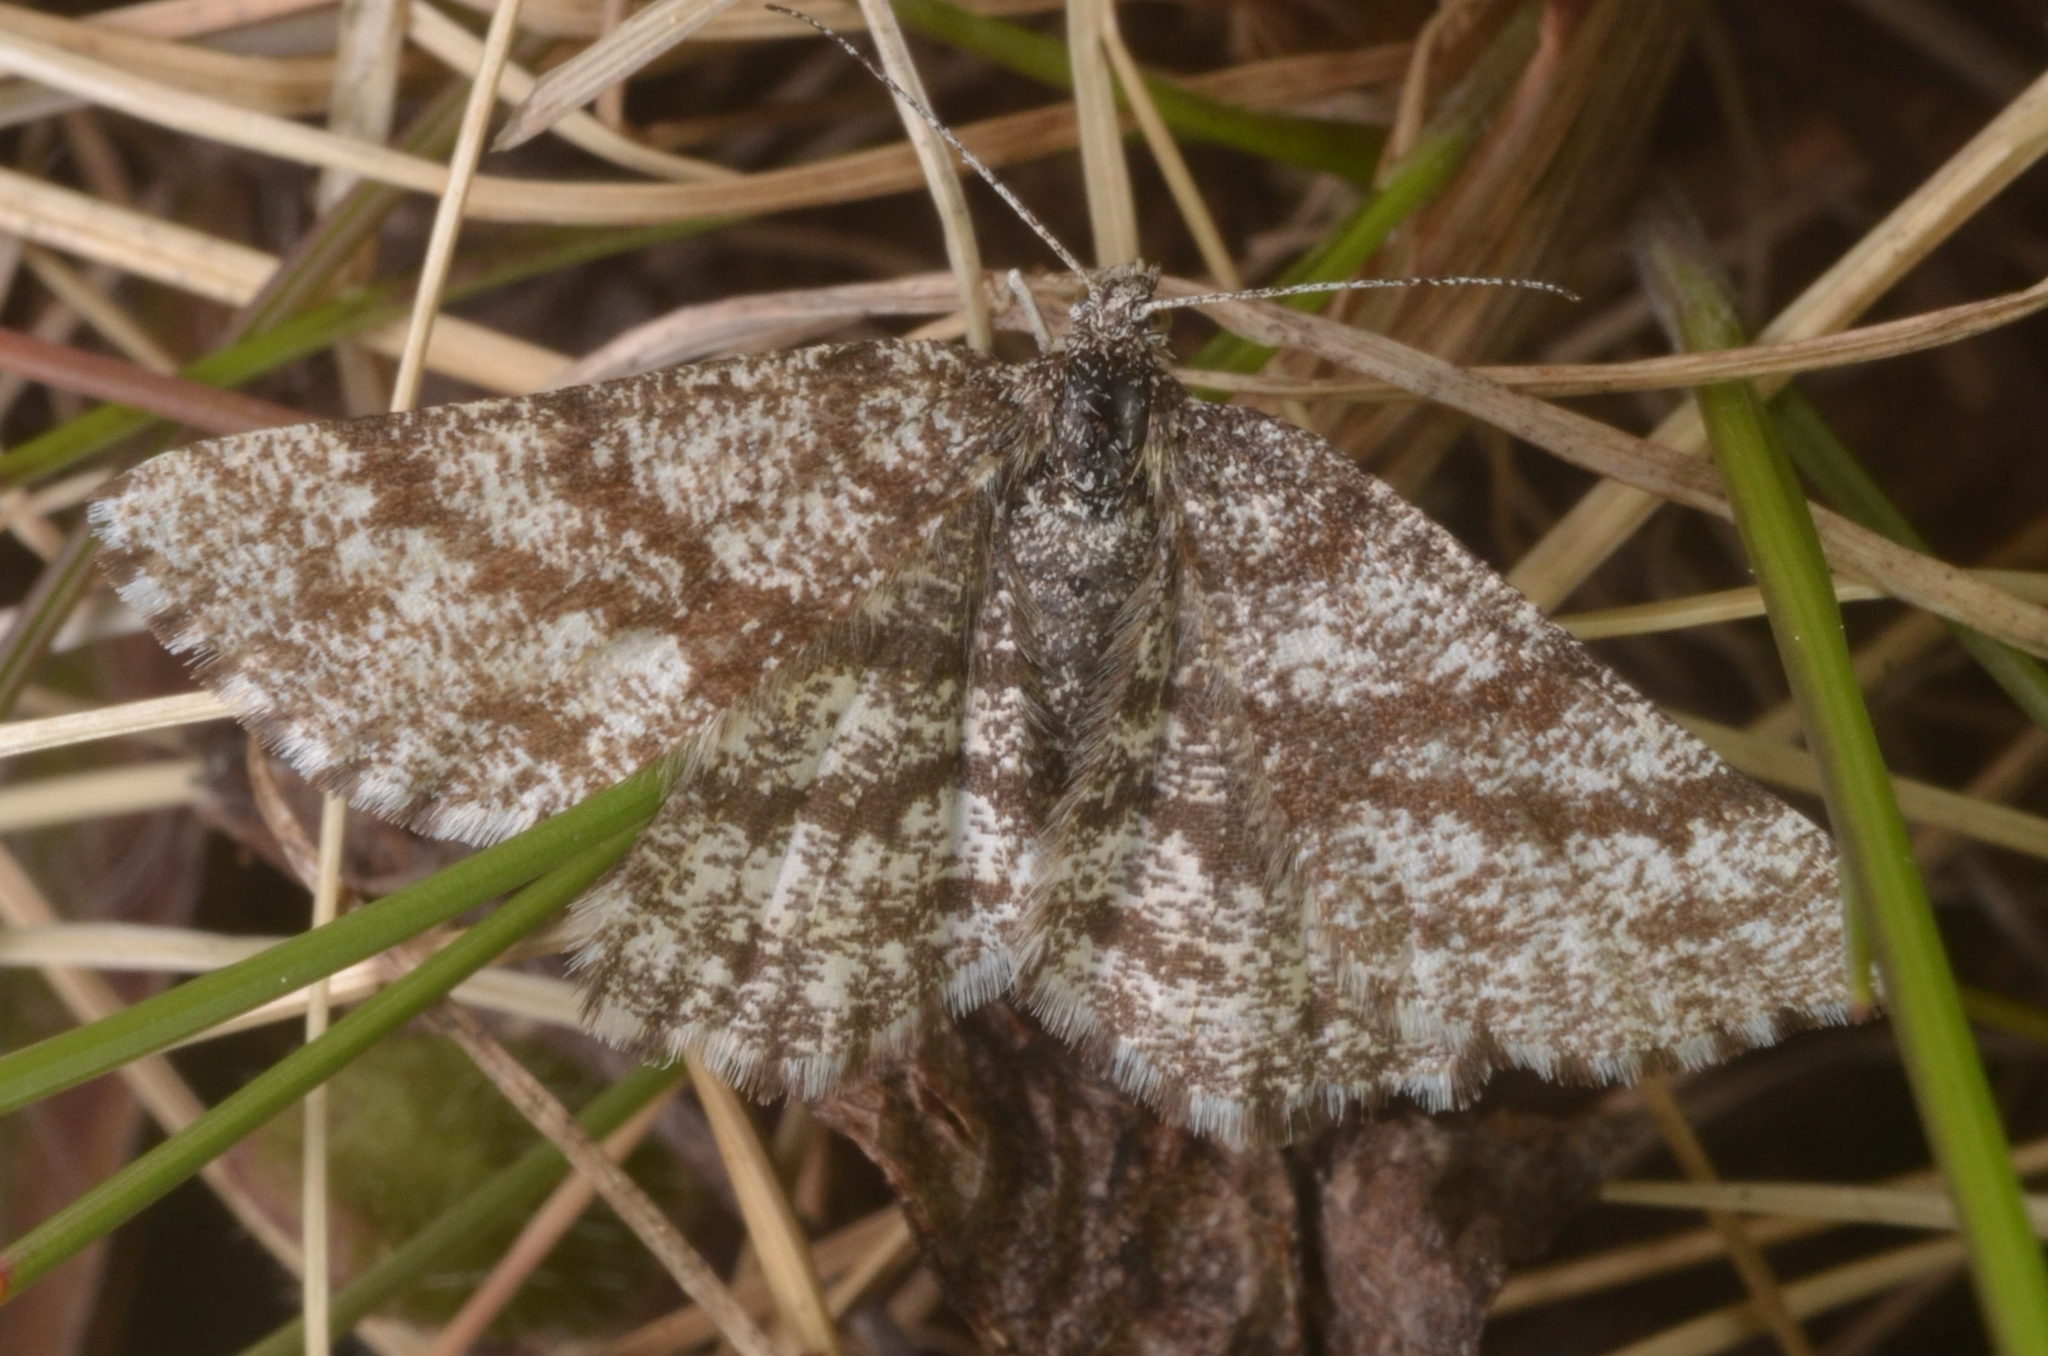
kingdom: Animalia
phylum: Arthropoda
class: Insecta
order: Lepidoptera
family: Geometridae
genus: Ematurga
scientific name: Ematurga atomaria
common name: Common heath
